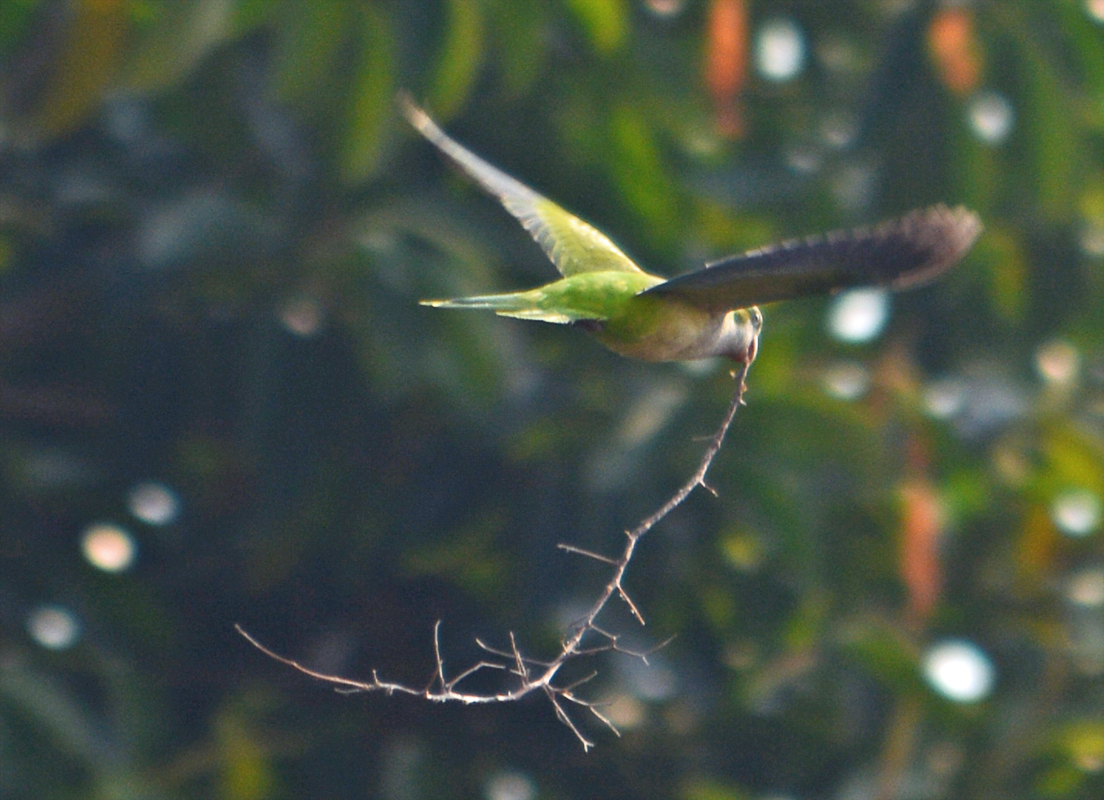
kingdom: Animalia
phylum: Chordata
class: Aves
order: Psittaciformes
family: Psittacidae
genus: Myiopsitta
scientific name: Myiopsitta monachus
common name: Monk parakeet
